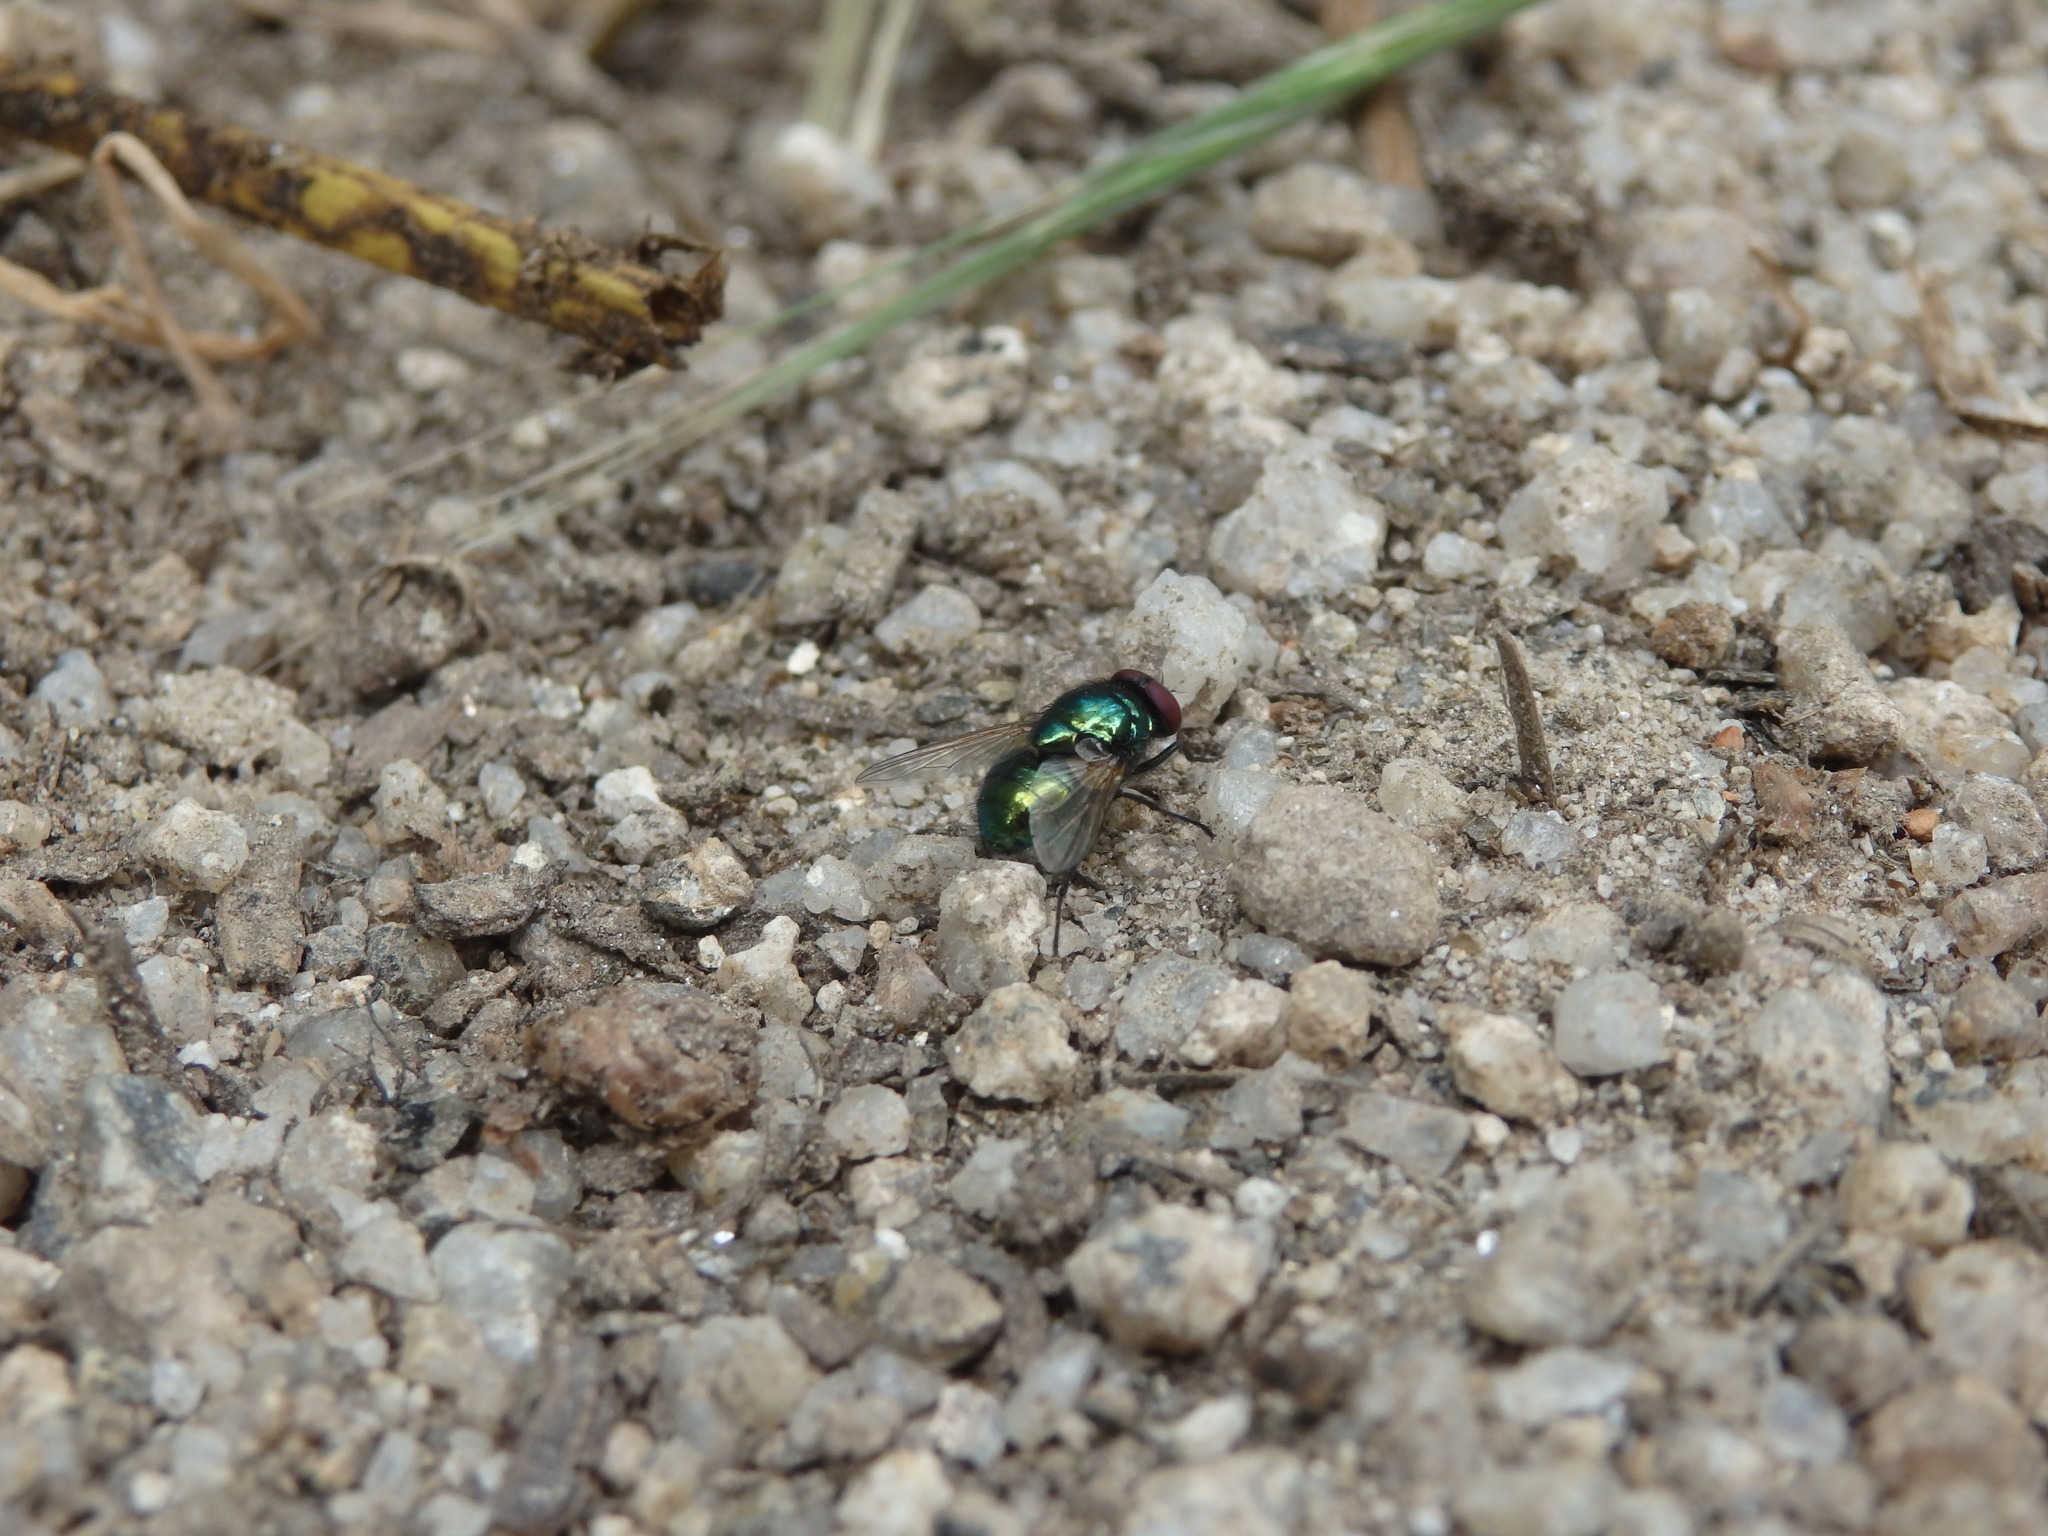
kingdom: Animalia
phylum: Arthropoda
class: Insecta
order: Diptera
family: Muscidae
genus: Pyrellia
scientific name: Pyrellia vivida
